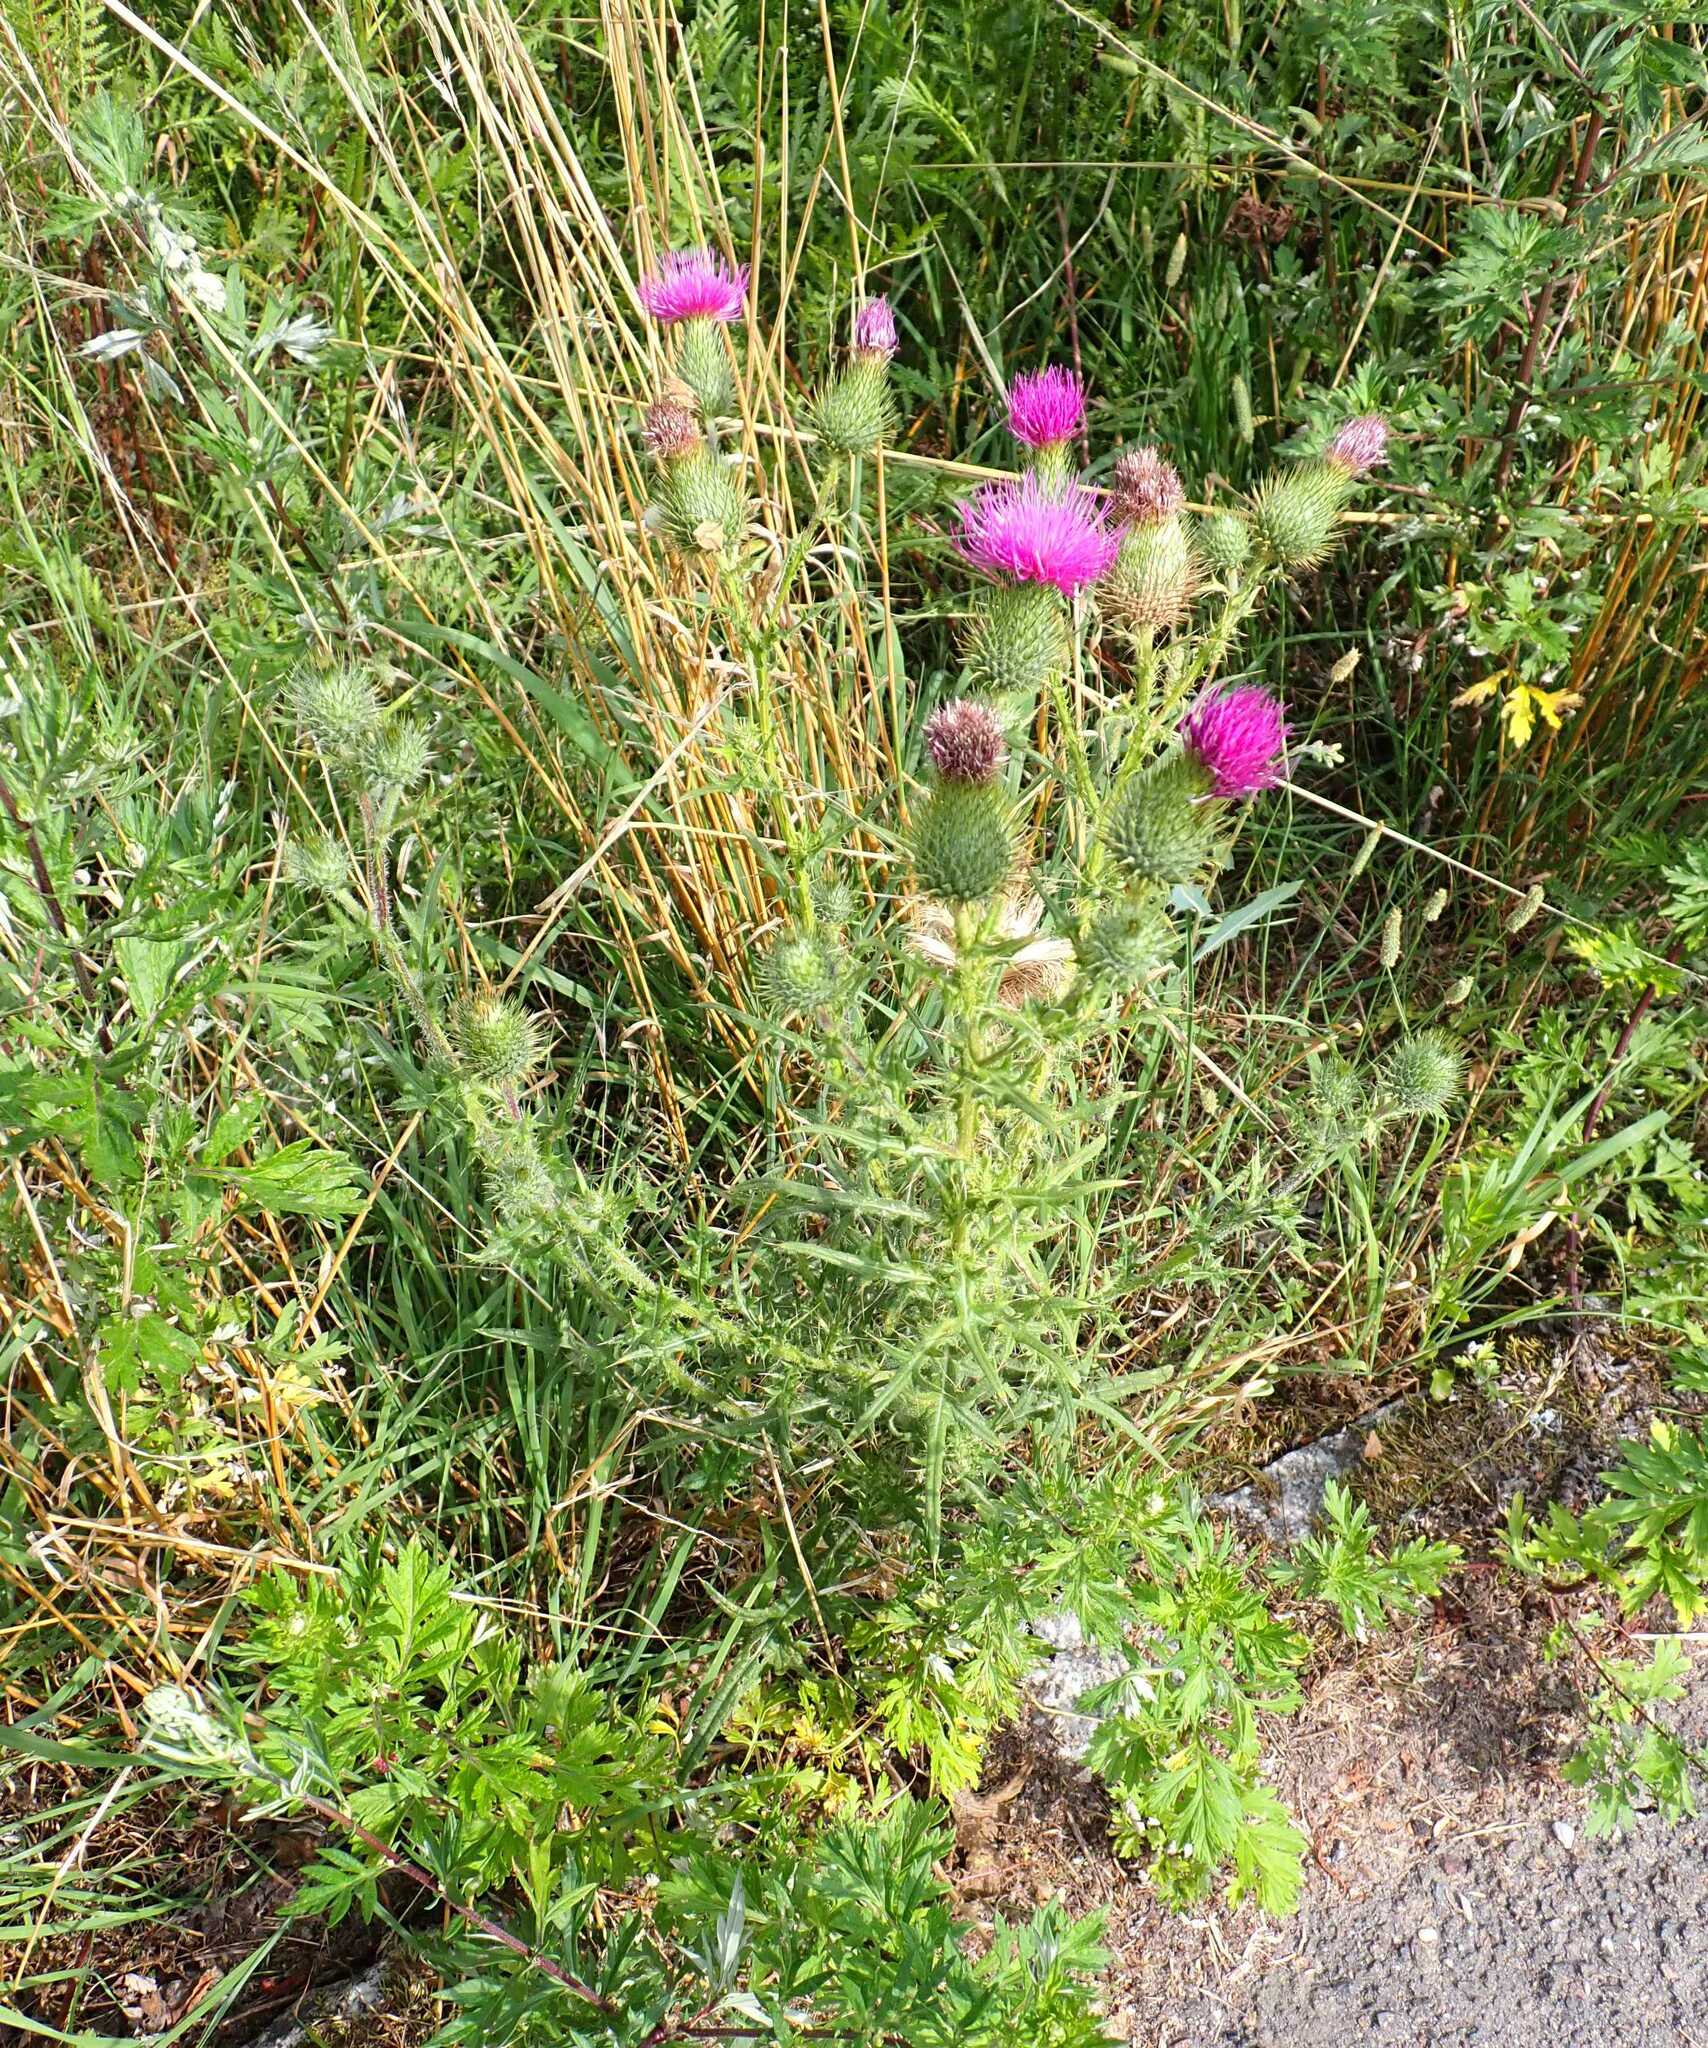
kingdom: Plantae
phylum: Tracheophyta
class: Magnoliopsida
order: Asterales
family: Asteraceae
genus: Cirsium
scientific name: Cirsium vulgare
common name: Bull thistle
